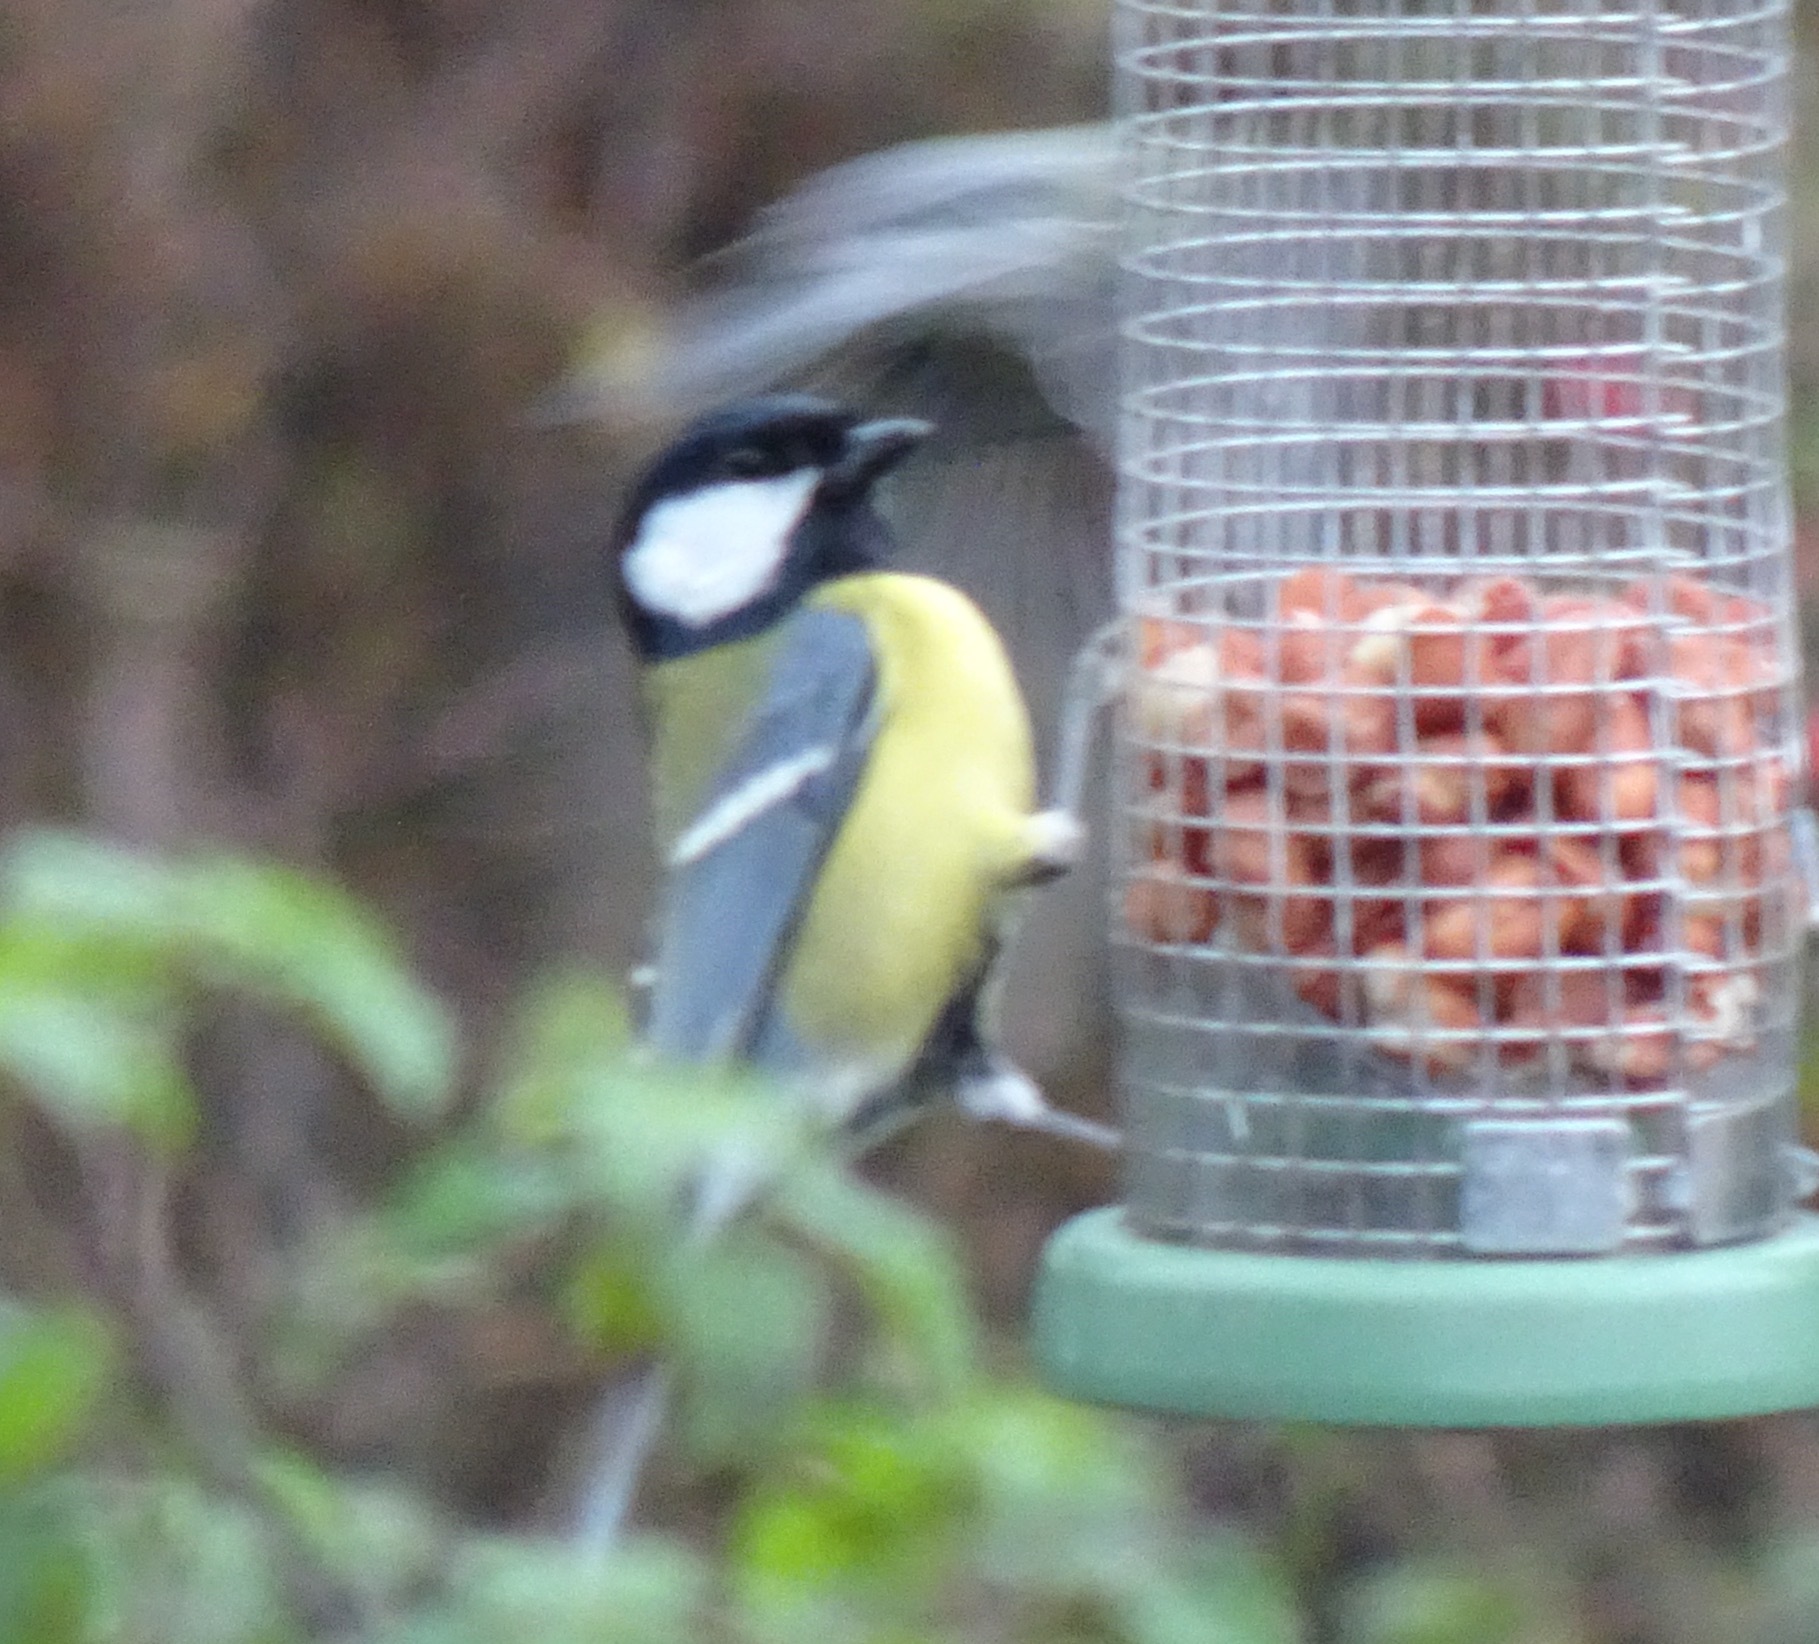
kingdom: Animalia
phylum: Chordata
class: Aves
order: Passeriformes
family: Paridae
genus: Parus
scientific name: Parus major
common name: Great tit
